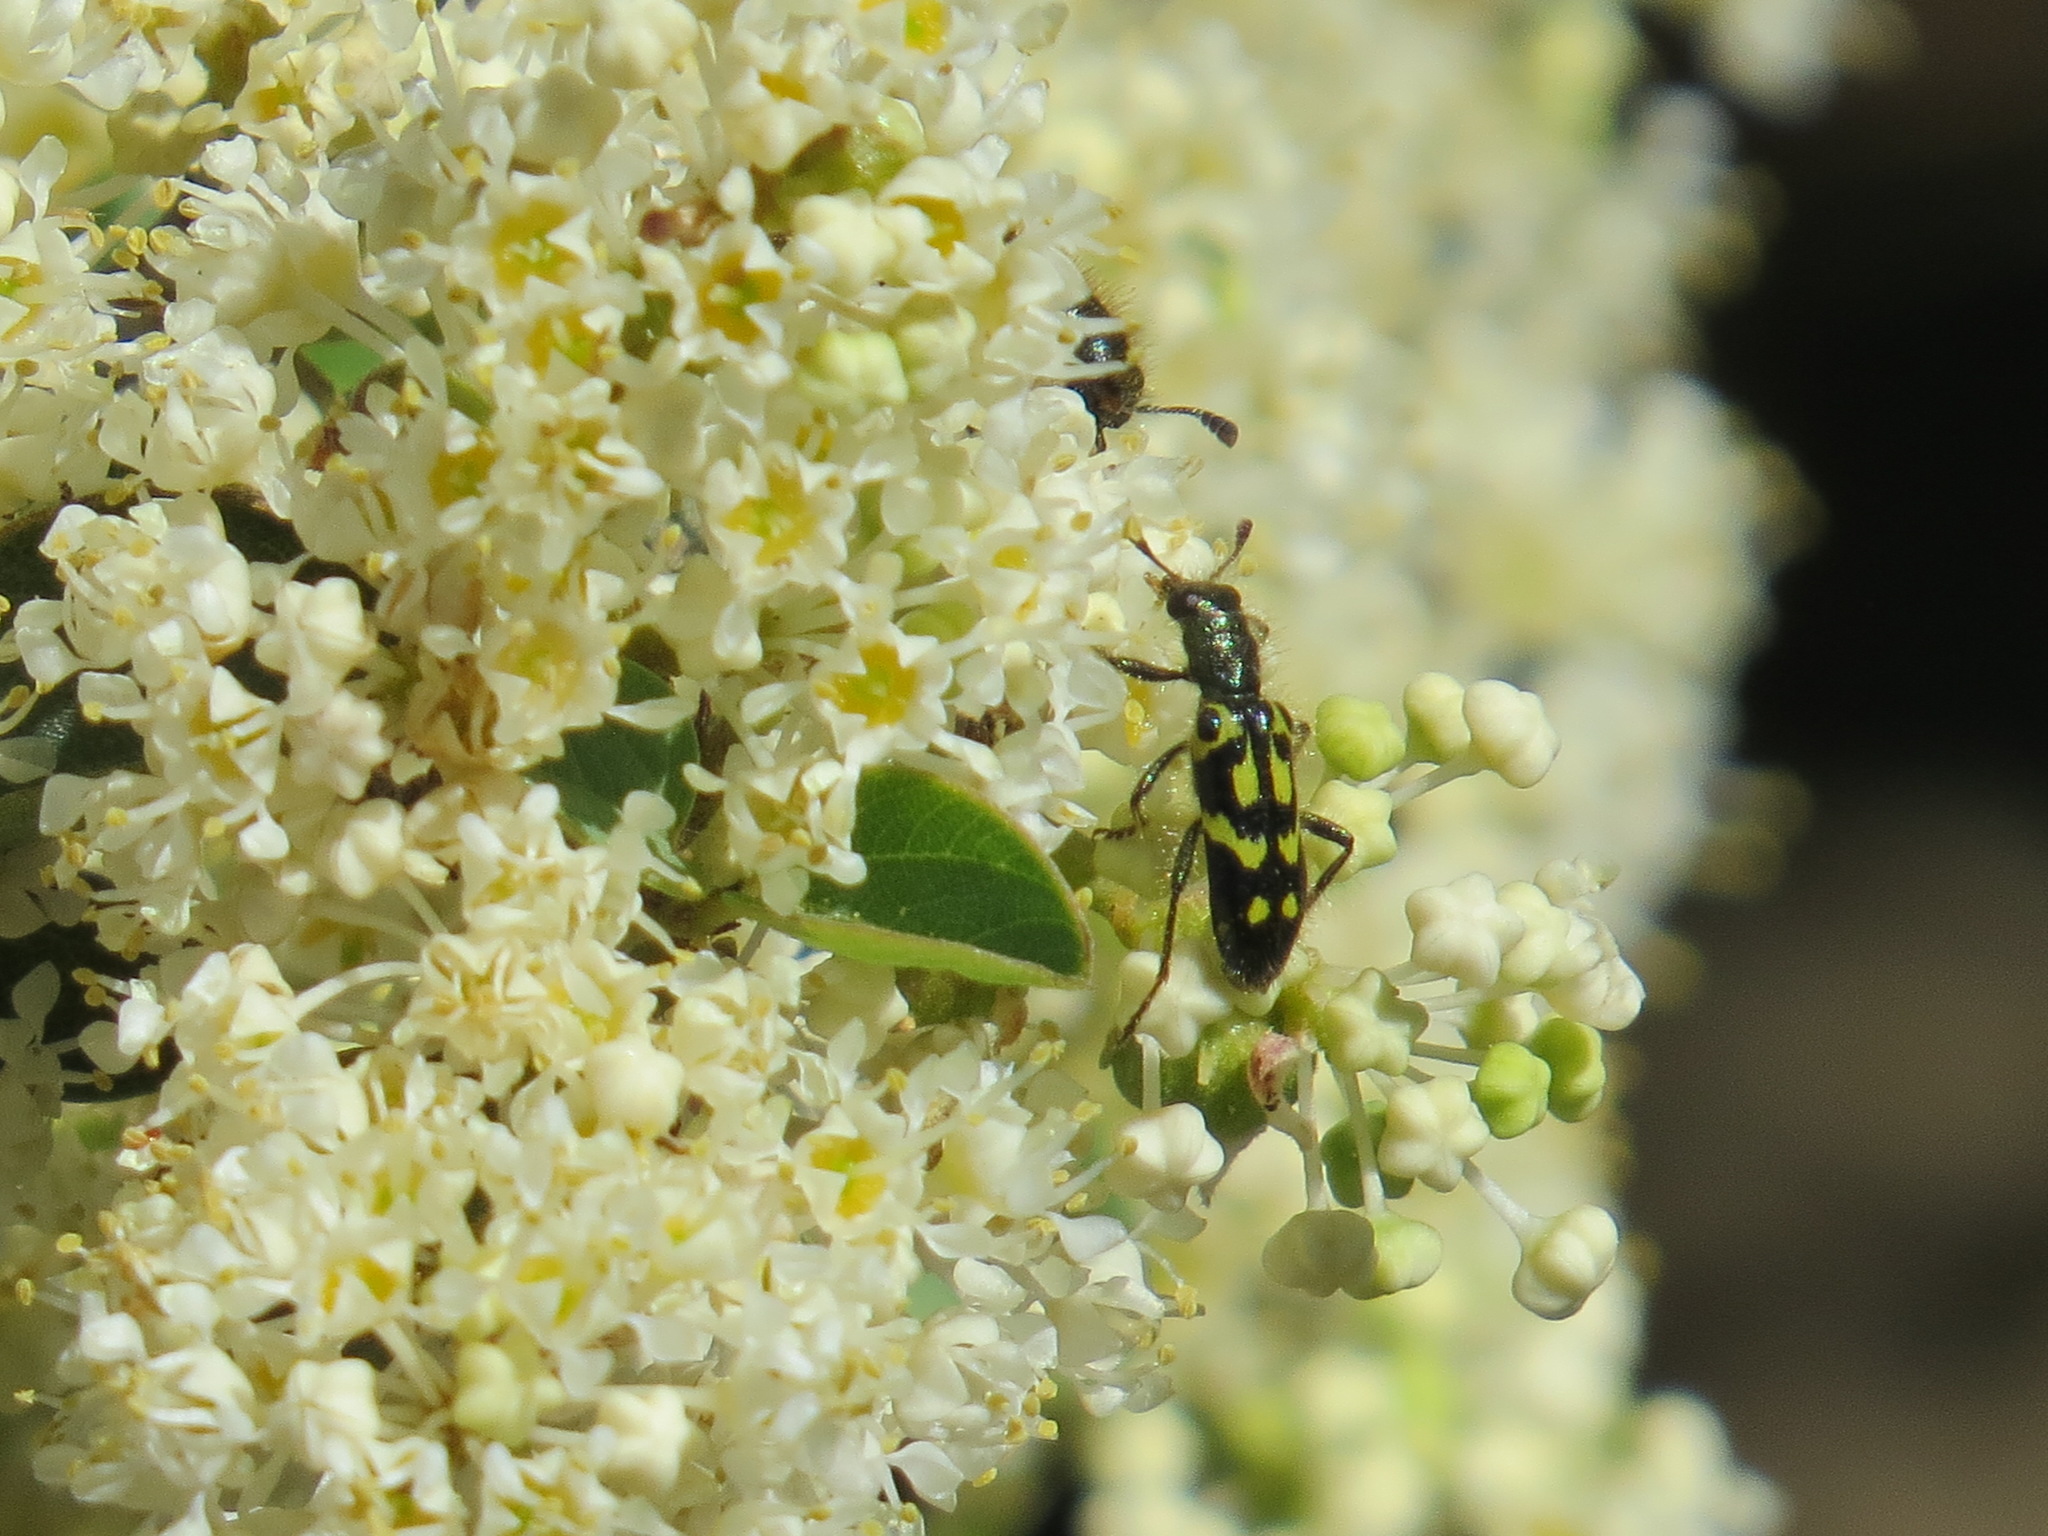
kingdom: Animalia
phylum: Arthropoda
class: Insecta
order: Coleoptera
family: Cleridae
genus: Trichodes
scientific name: Trichodes ornatus
